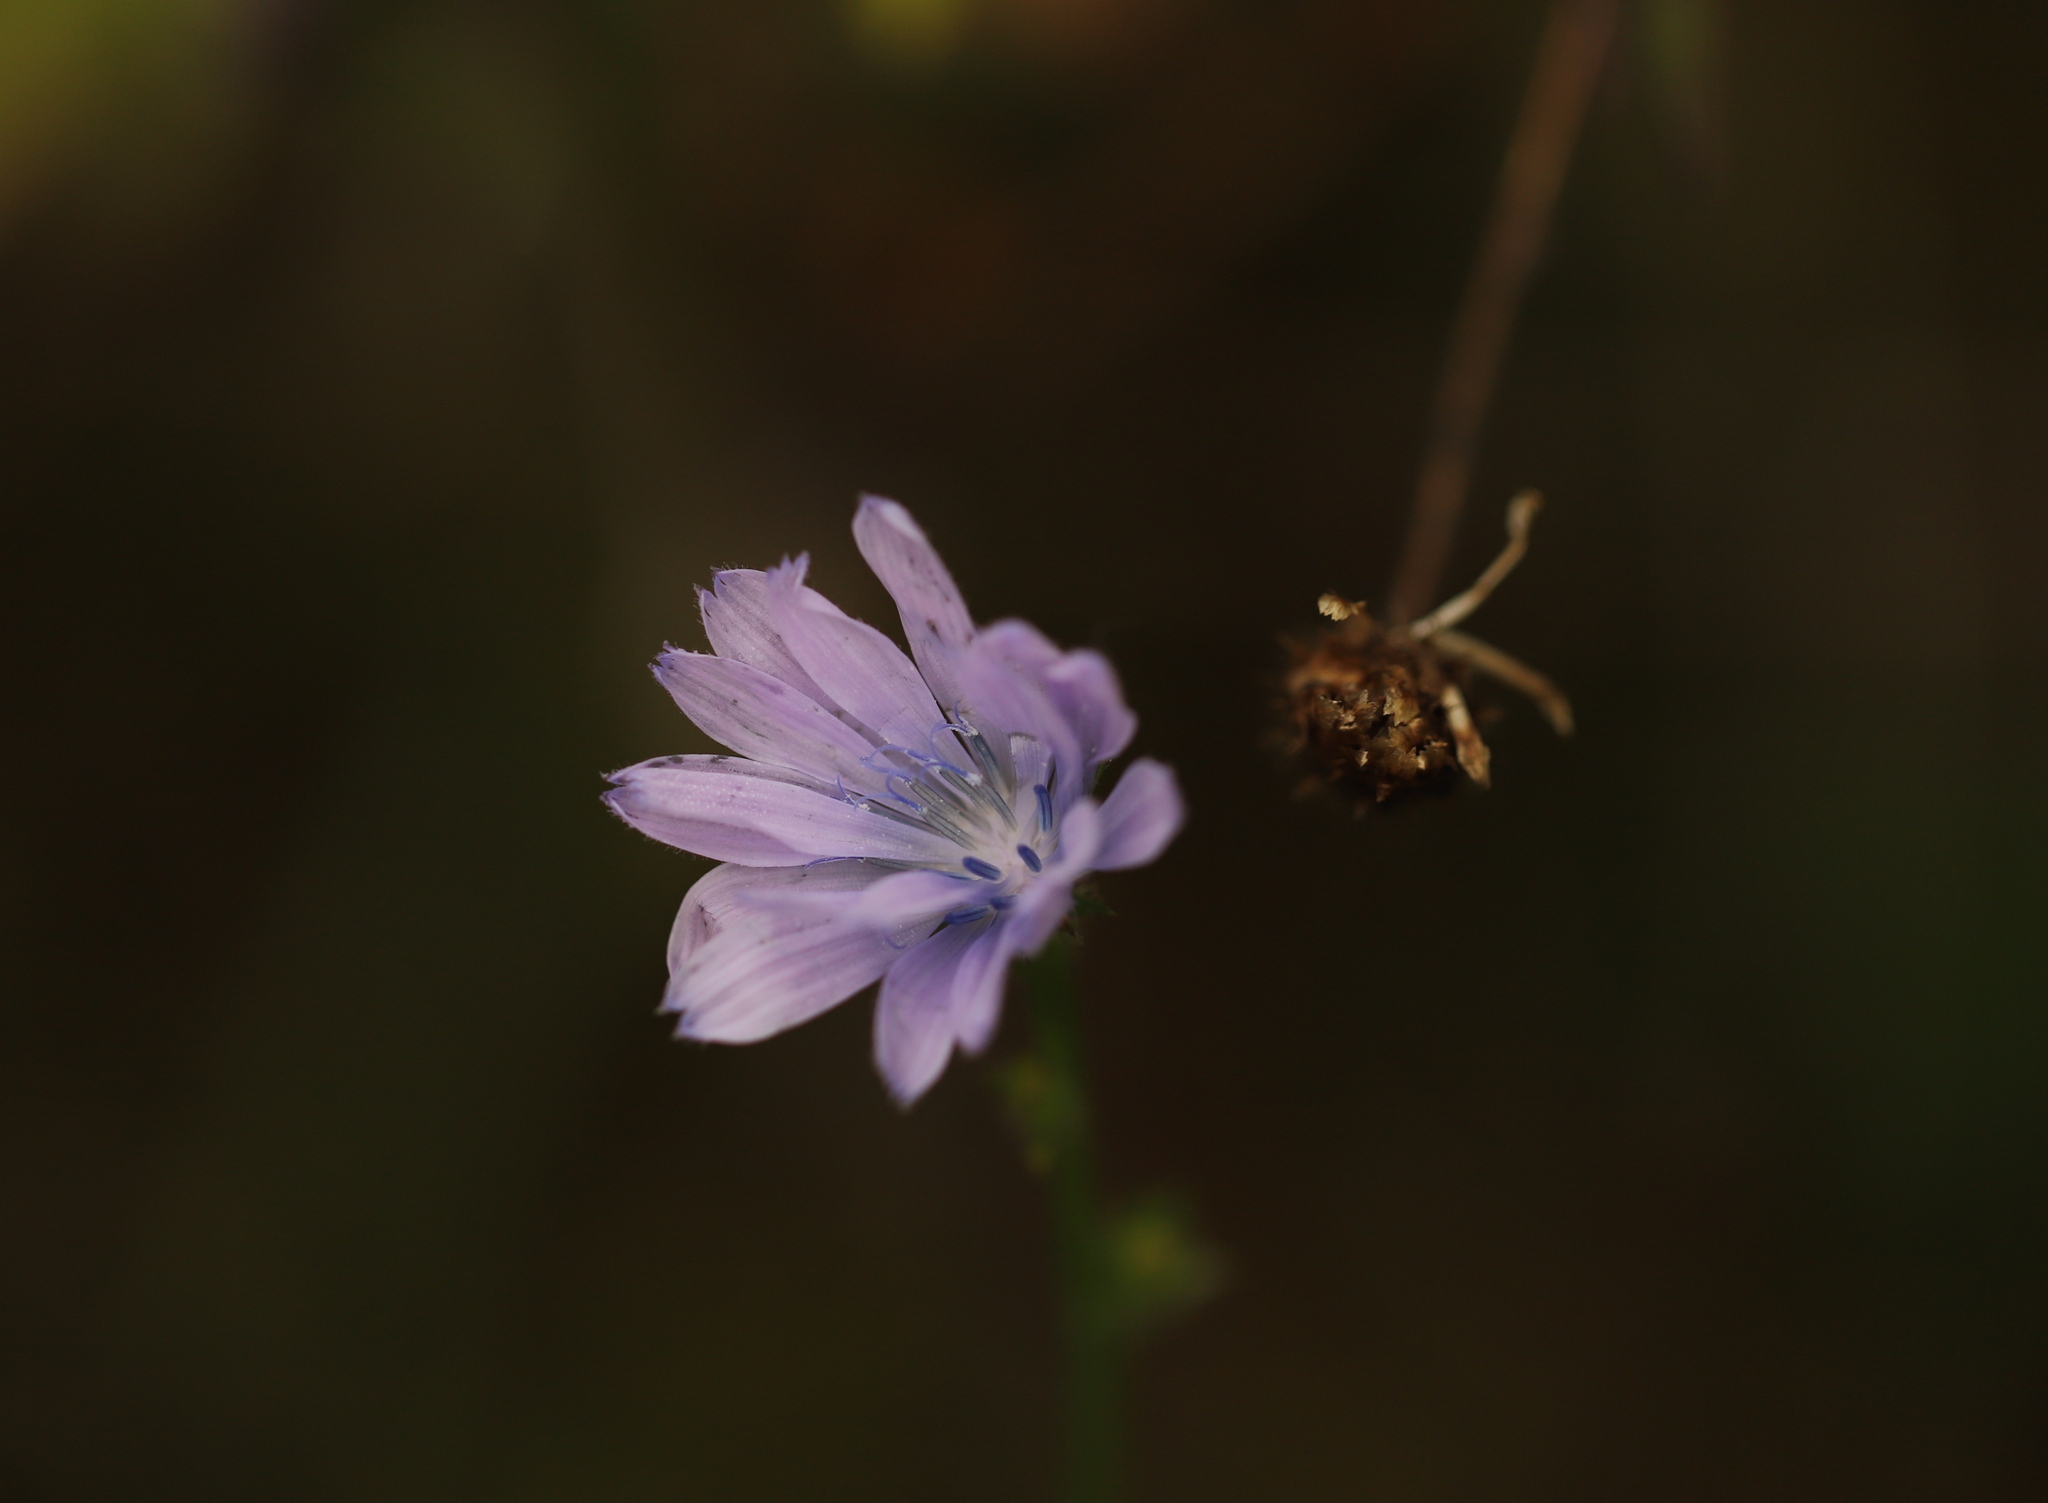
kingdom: Plantae
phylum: Tracheophyta
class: Magnoliopsida
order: Asterales
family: Asteraceae
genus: Cichorium
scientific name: Cichorium intybus
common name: Chicory
